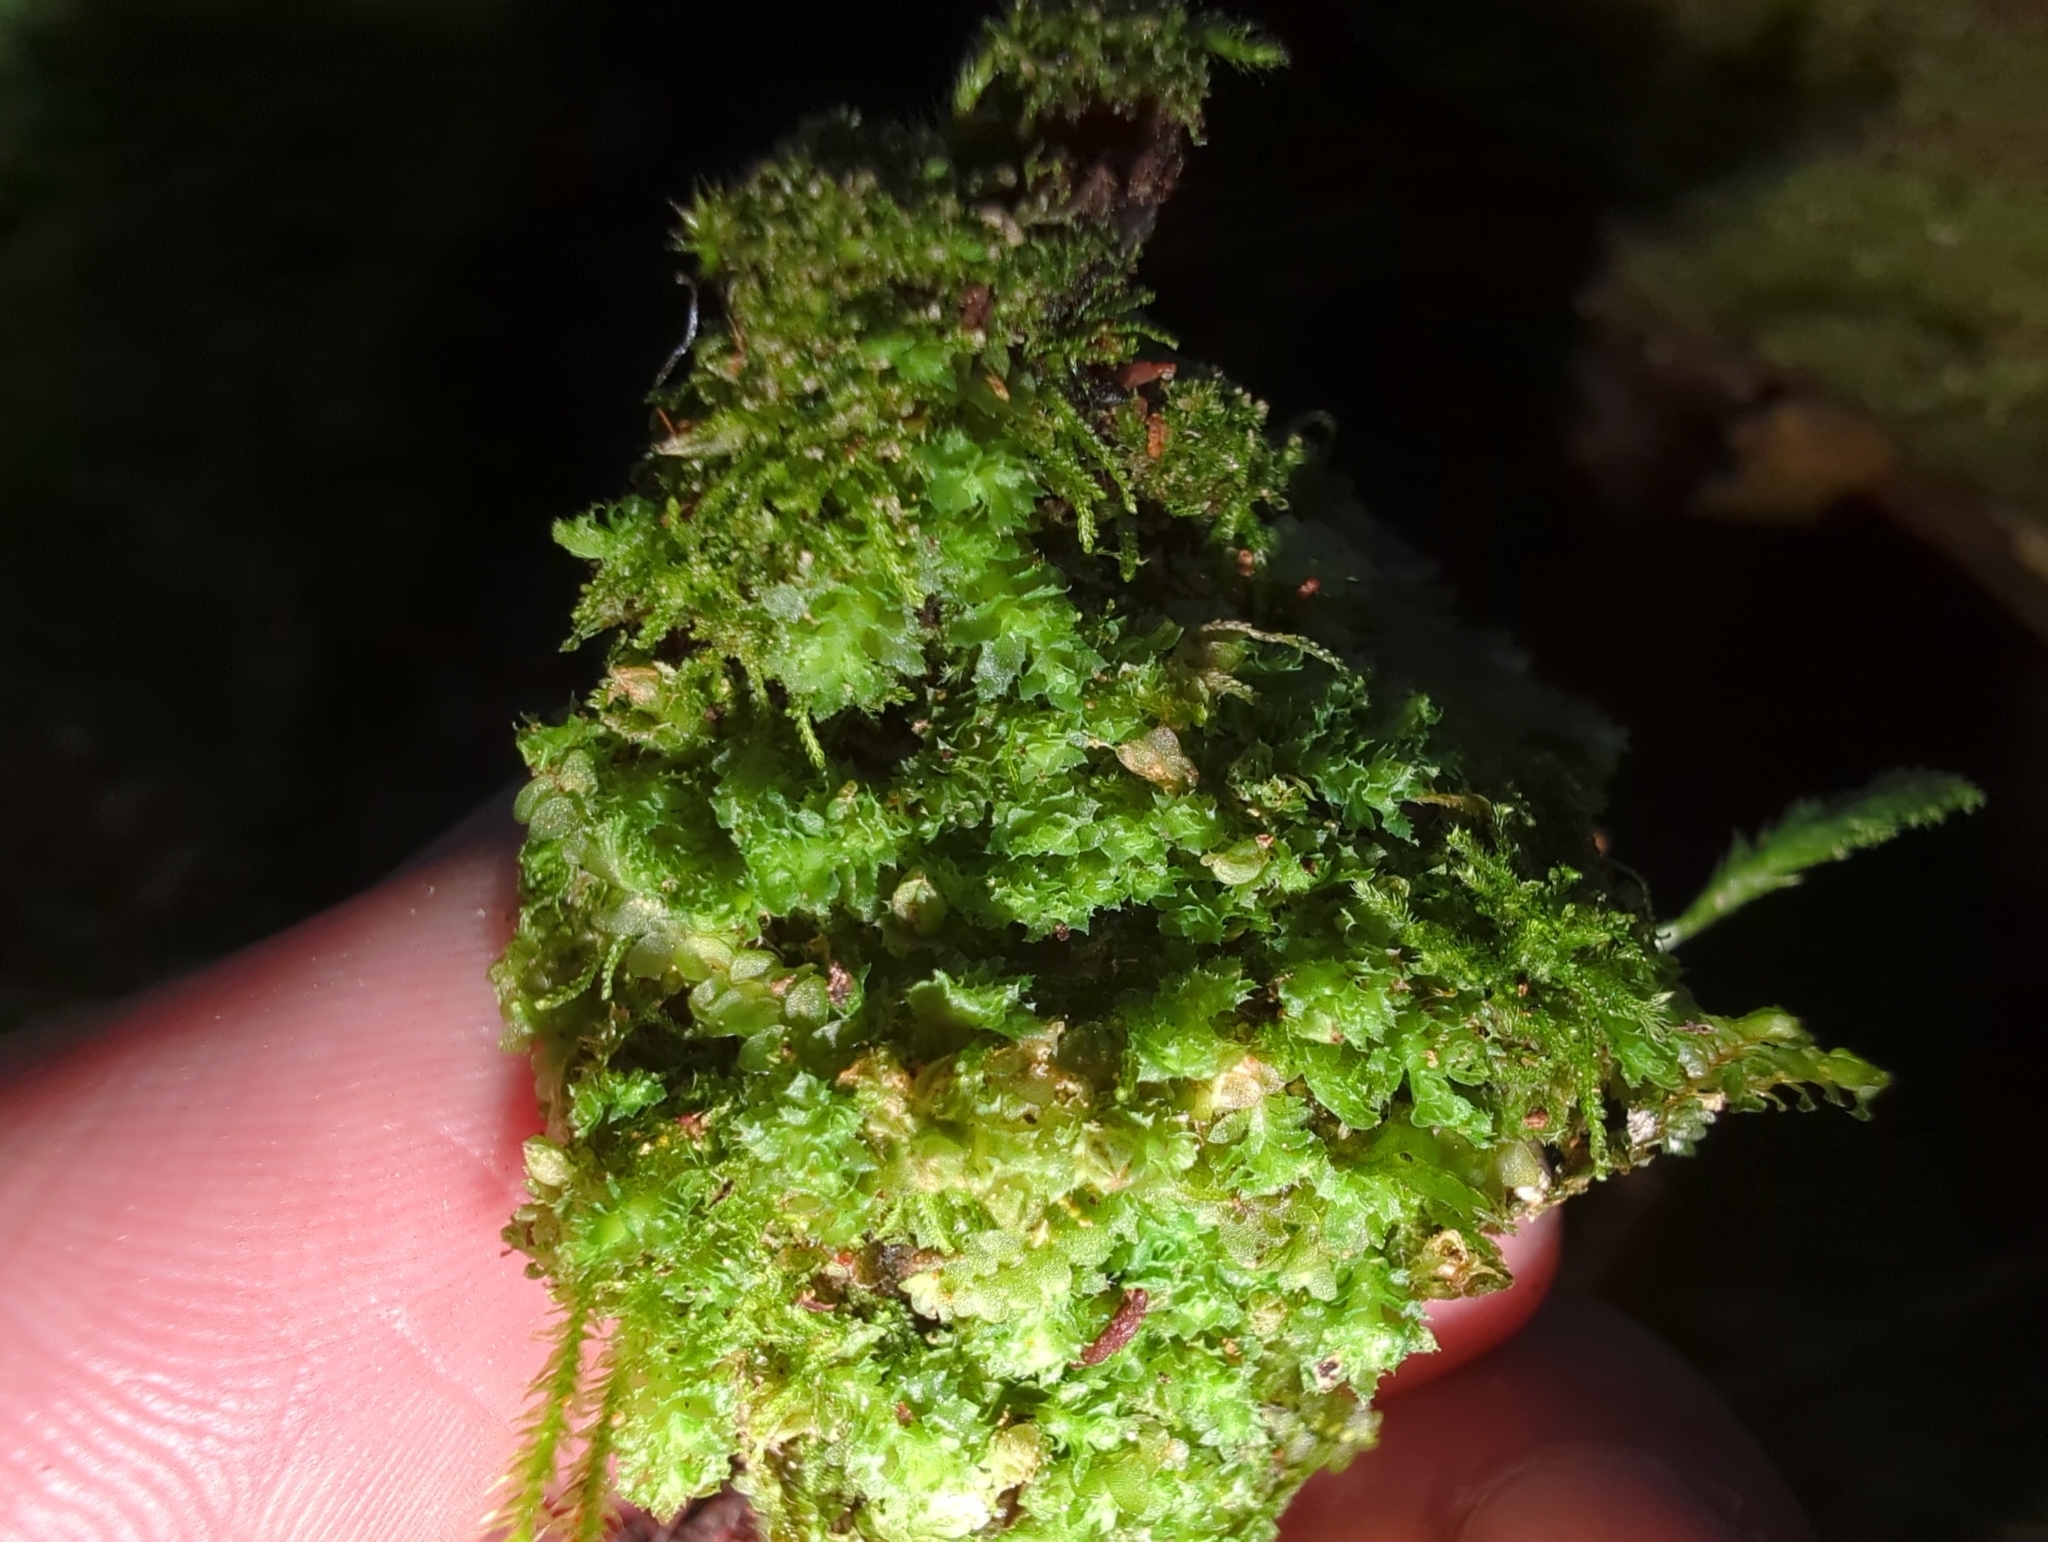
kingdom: Plantae
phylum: Marchantiophyta
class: Jungermanniopsida
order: Jungermanniales
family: Scapaniaceae
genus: Schistochilopsis
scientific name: Schistochilopsis incisa
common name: Jagged notchwort
